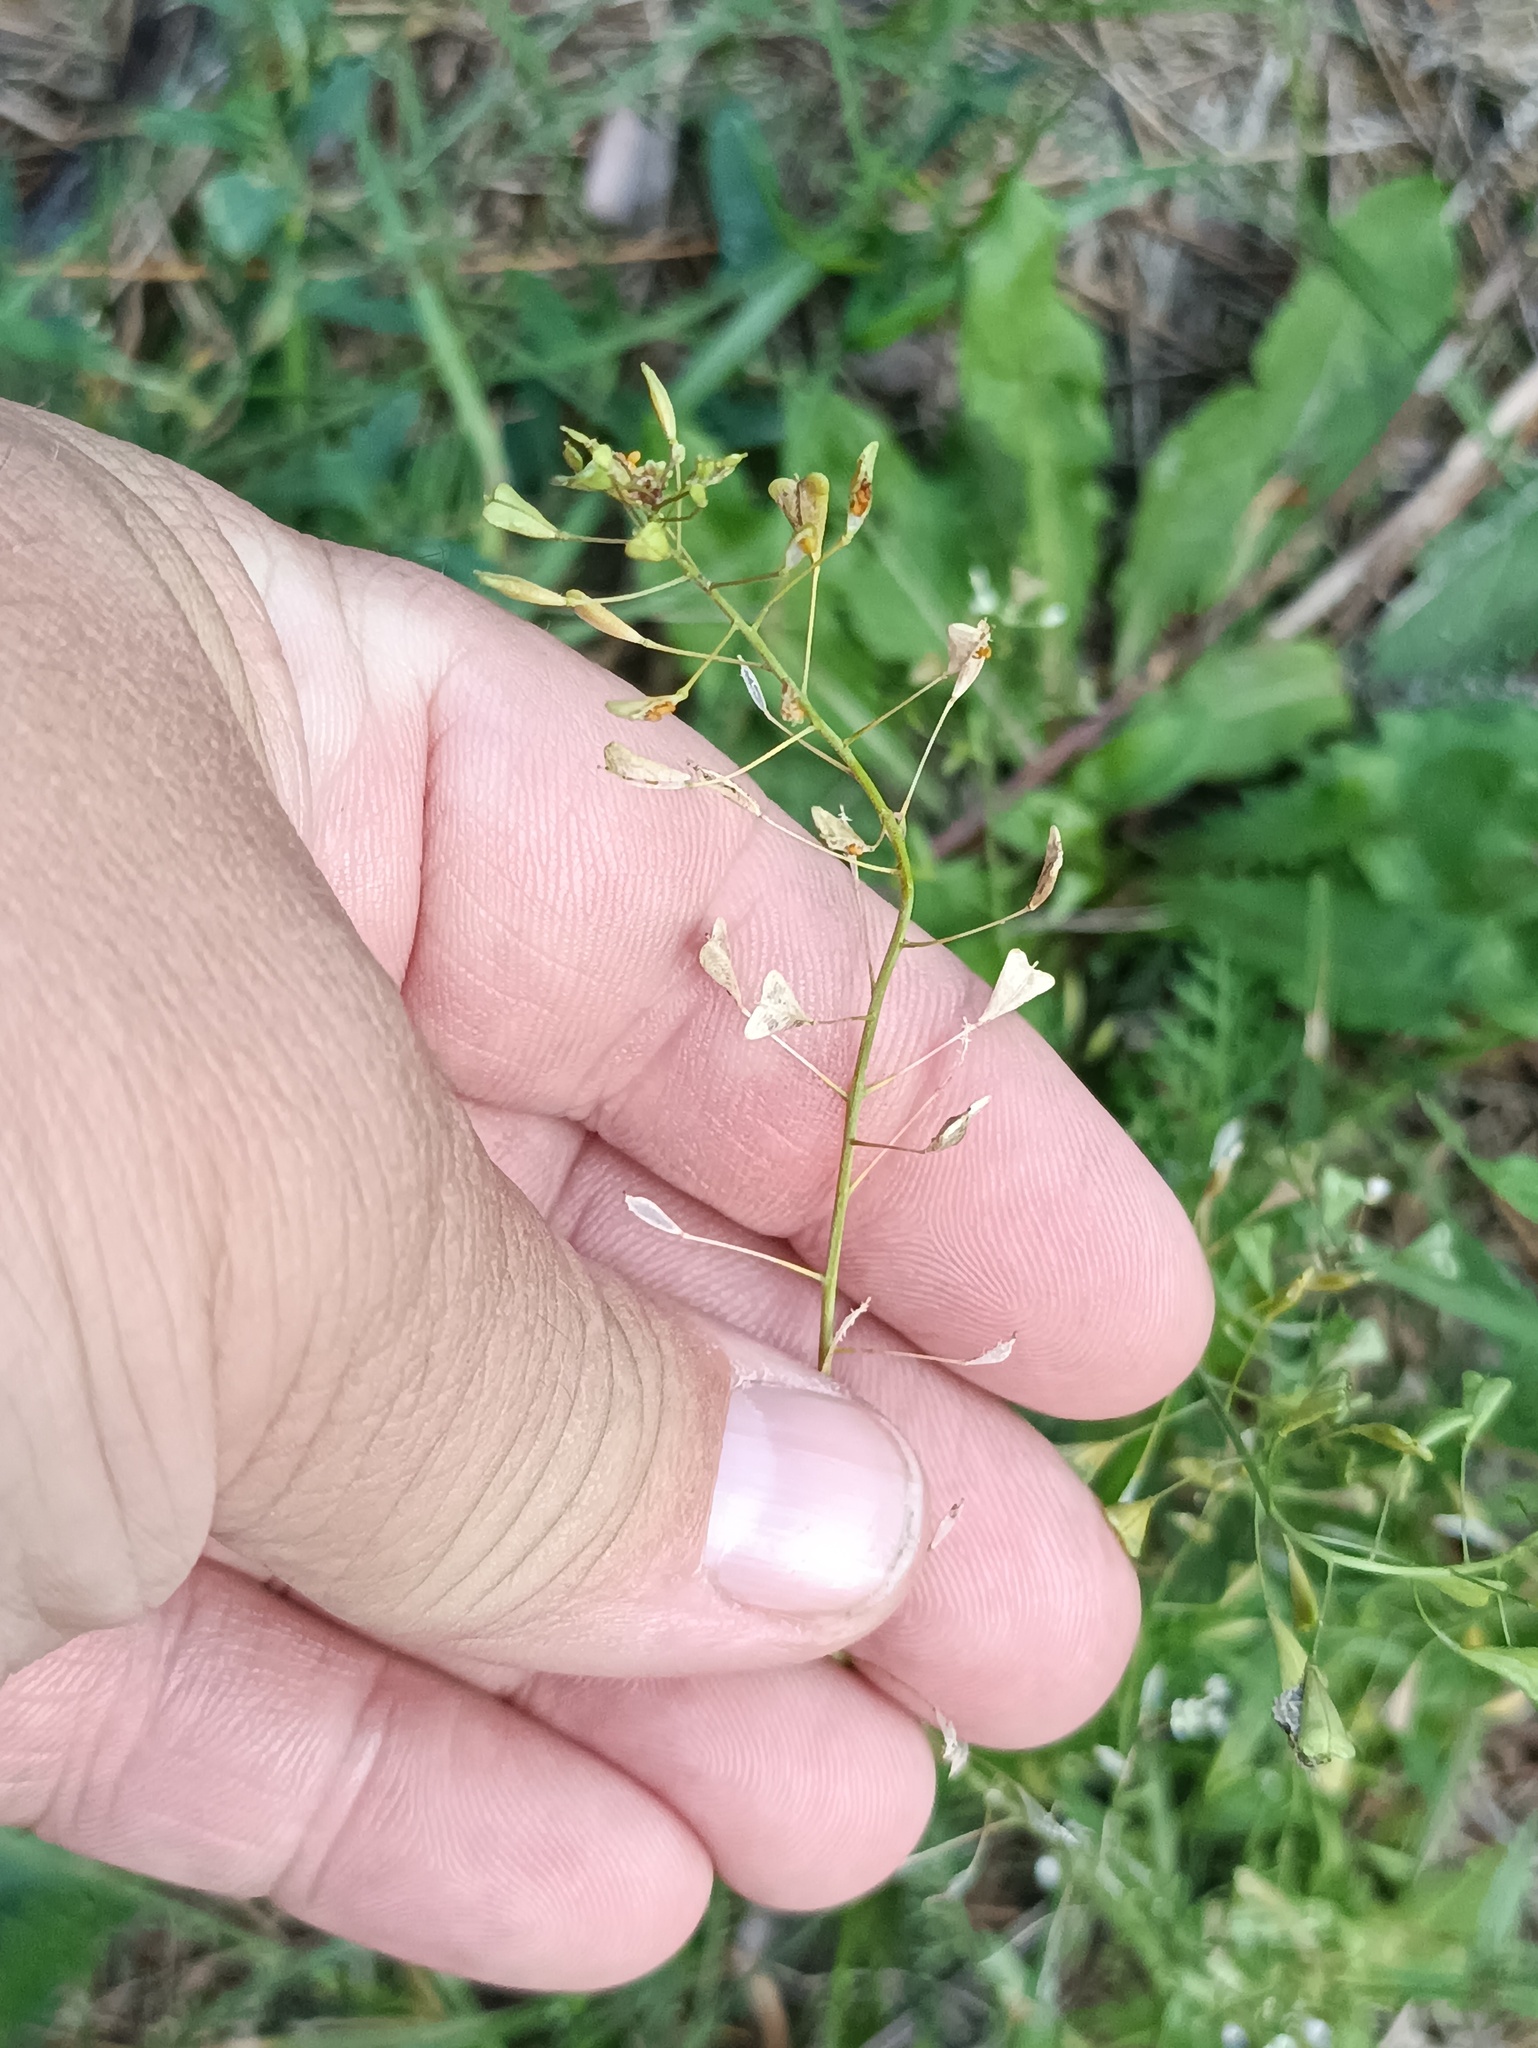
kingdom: Plantae
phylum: Tracheophyta
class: Magnoliopsida
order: Brassicales
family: Brassicaceae
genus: Capsella
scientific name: Capsella bursa-pastoris
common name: Shepherd's purse
